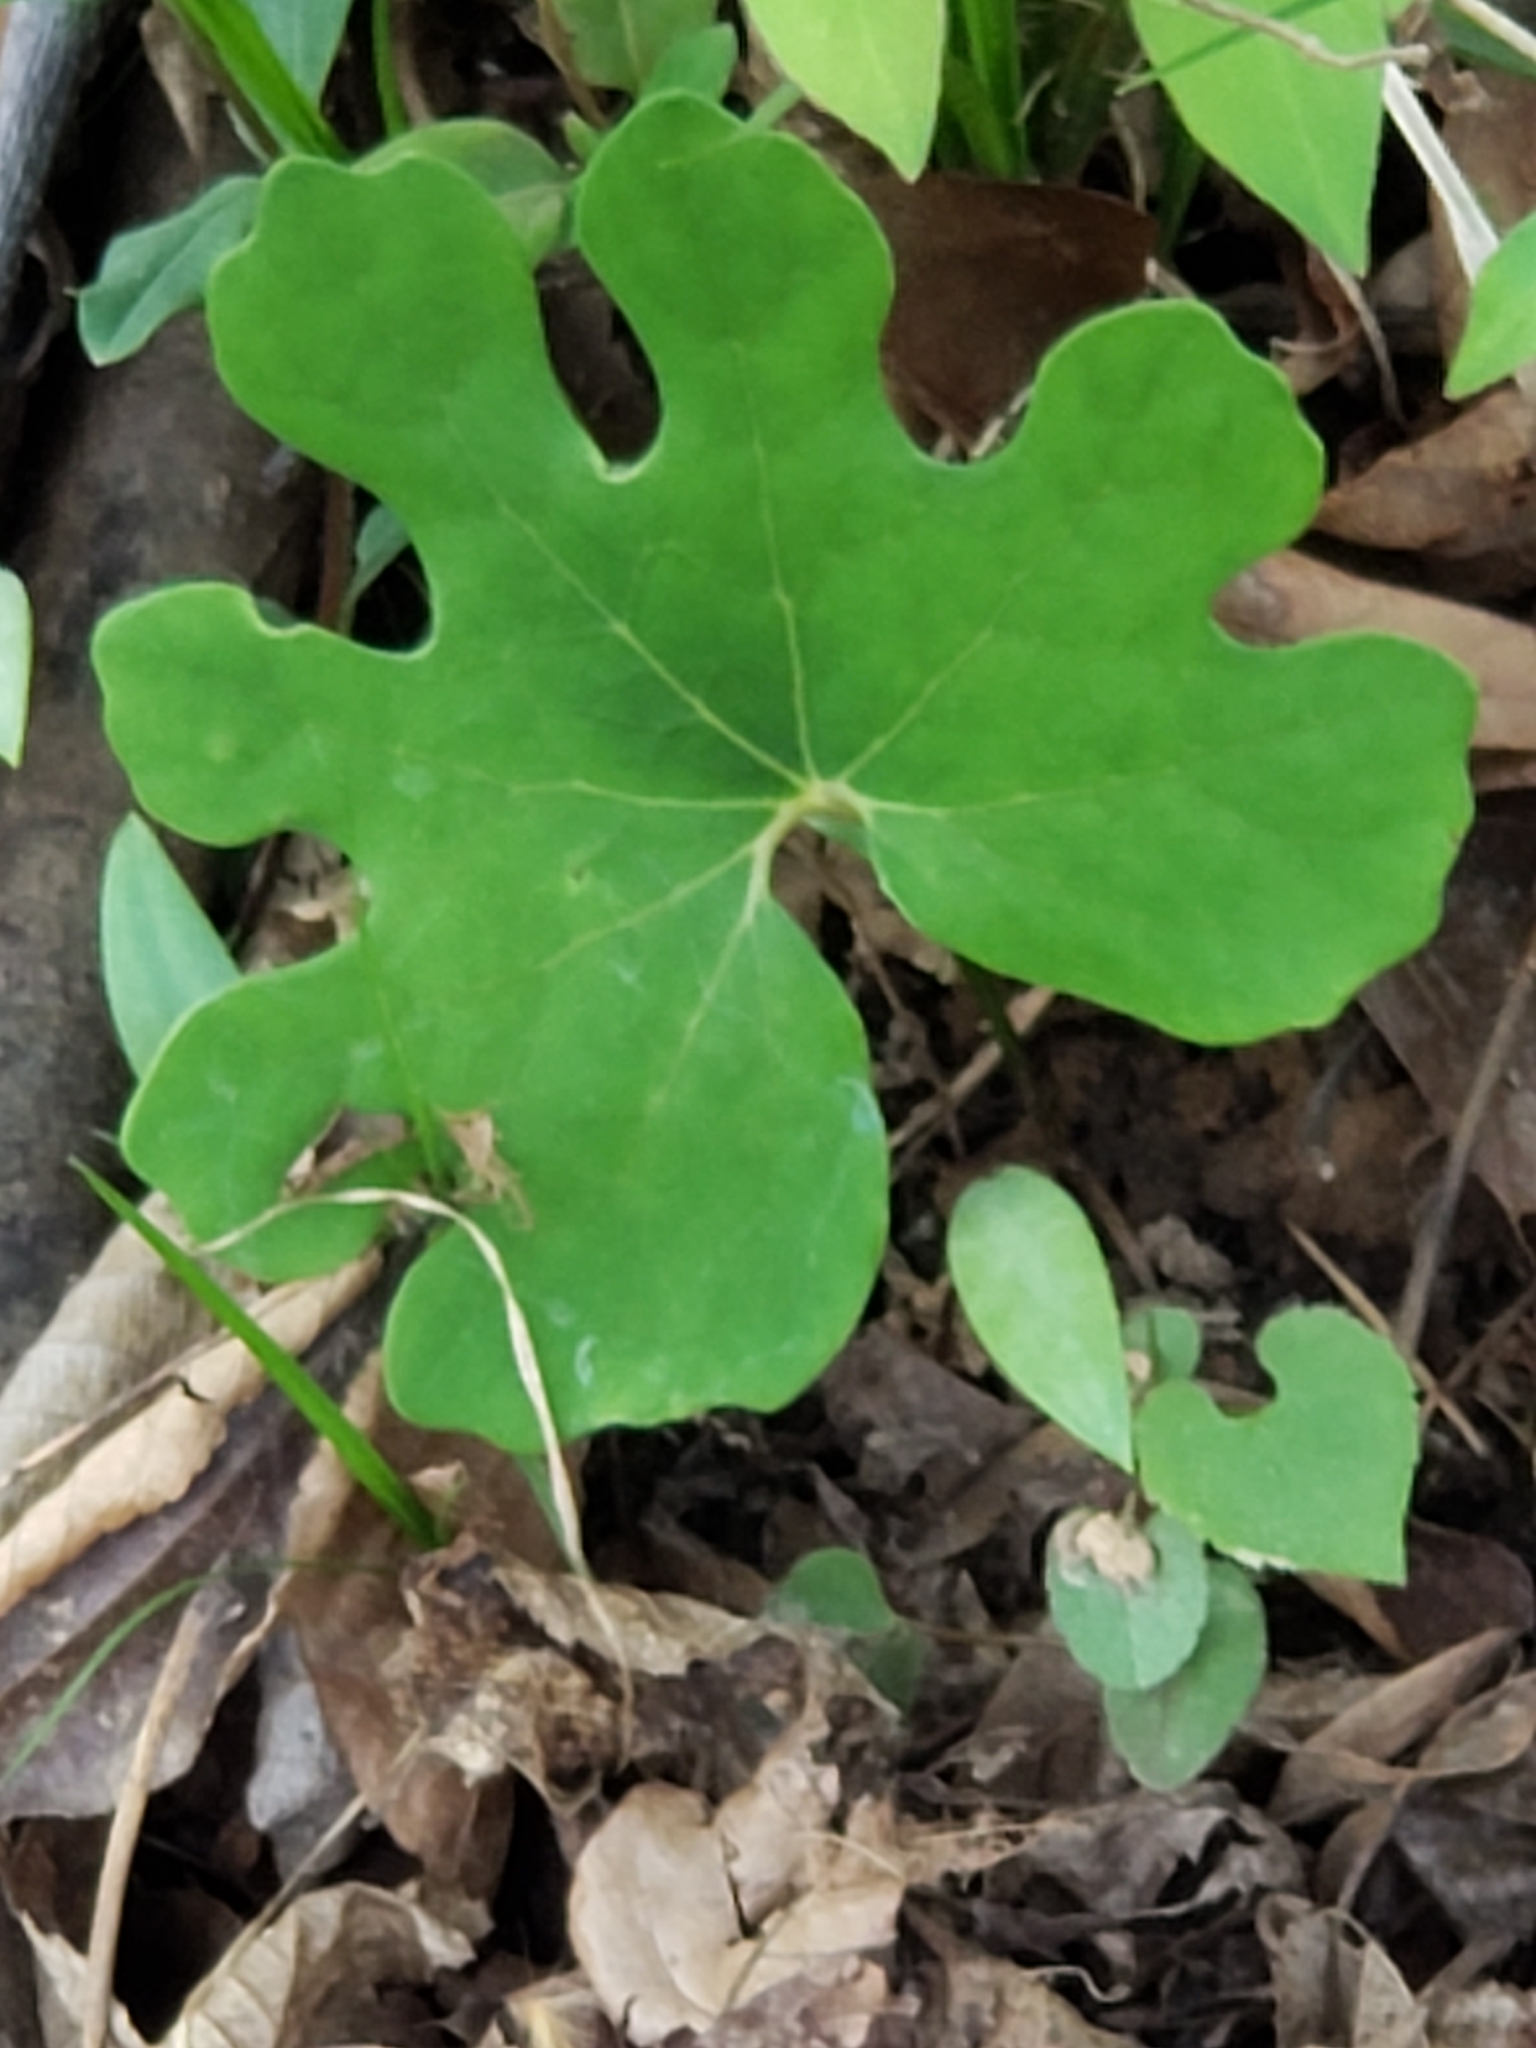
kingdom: Plantae
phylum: Tracheophyta
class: Magnoliopsida
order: Ranunculales
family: Papaveraceae
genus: Sanguinaria
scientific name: Sanguinaria canadensis
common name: Bloodroot
